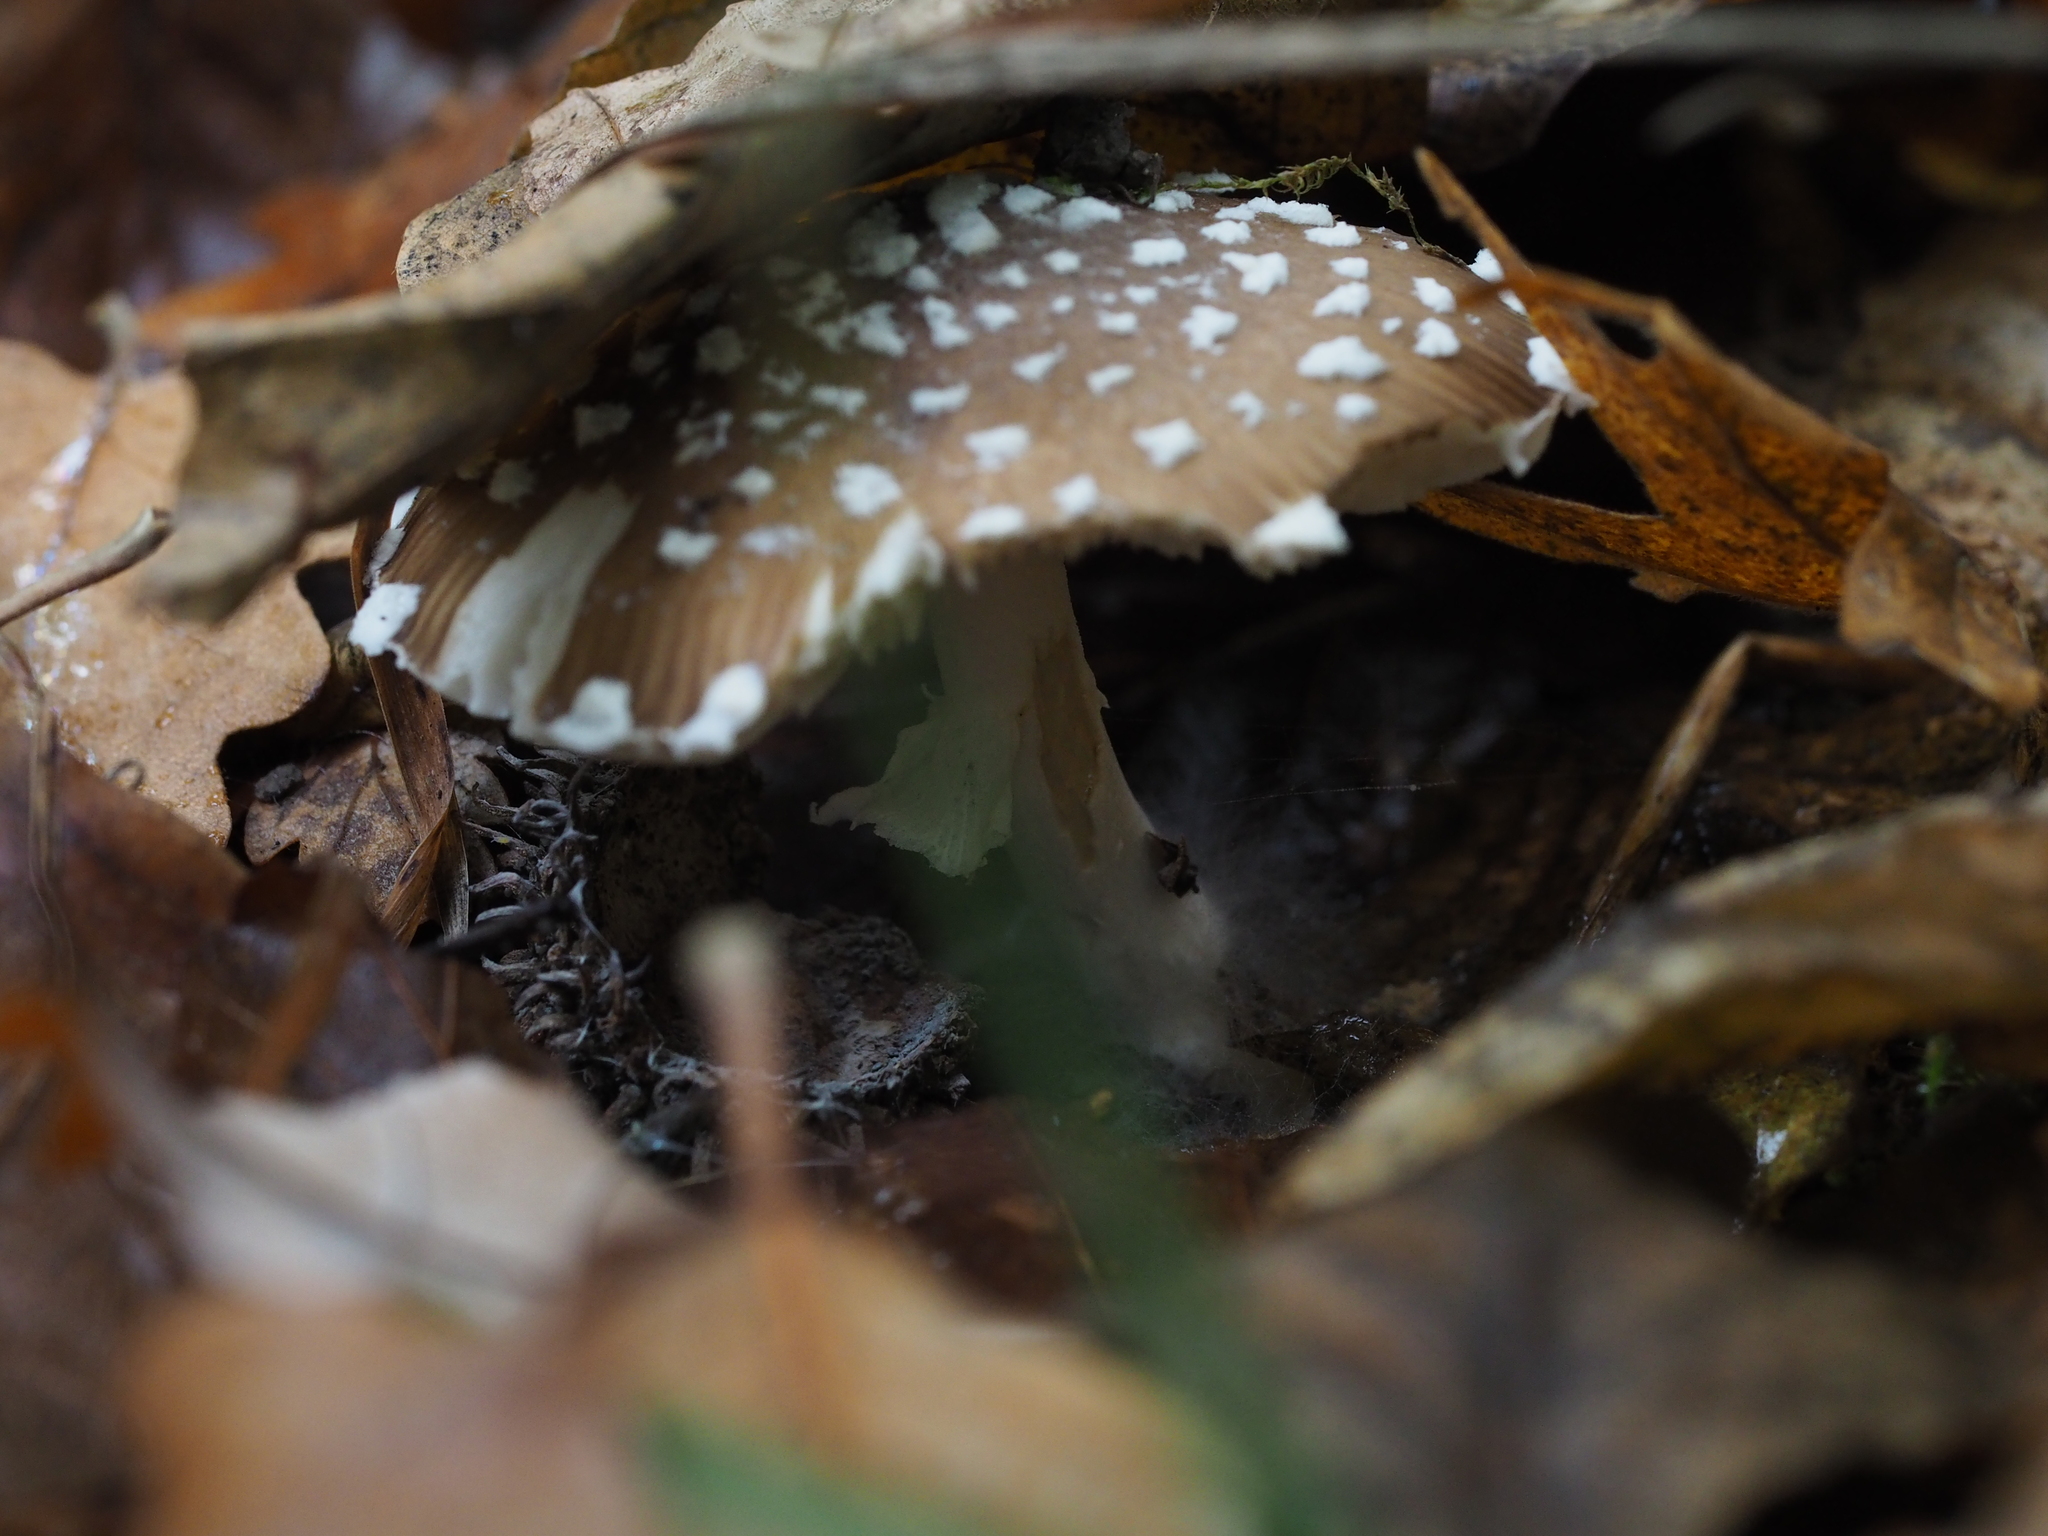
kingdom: Fungi
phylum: Basidiomycota
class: Agaricomycetes
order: Agaricales
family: Amanitaceae
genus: Amanita
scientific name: Amanita pantherina
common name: Panthercap
